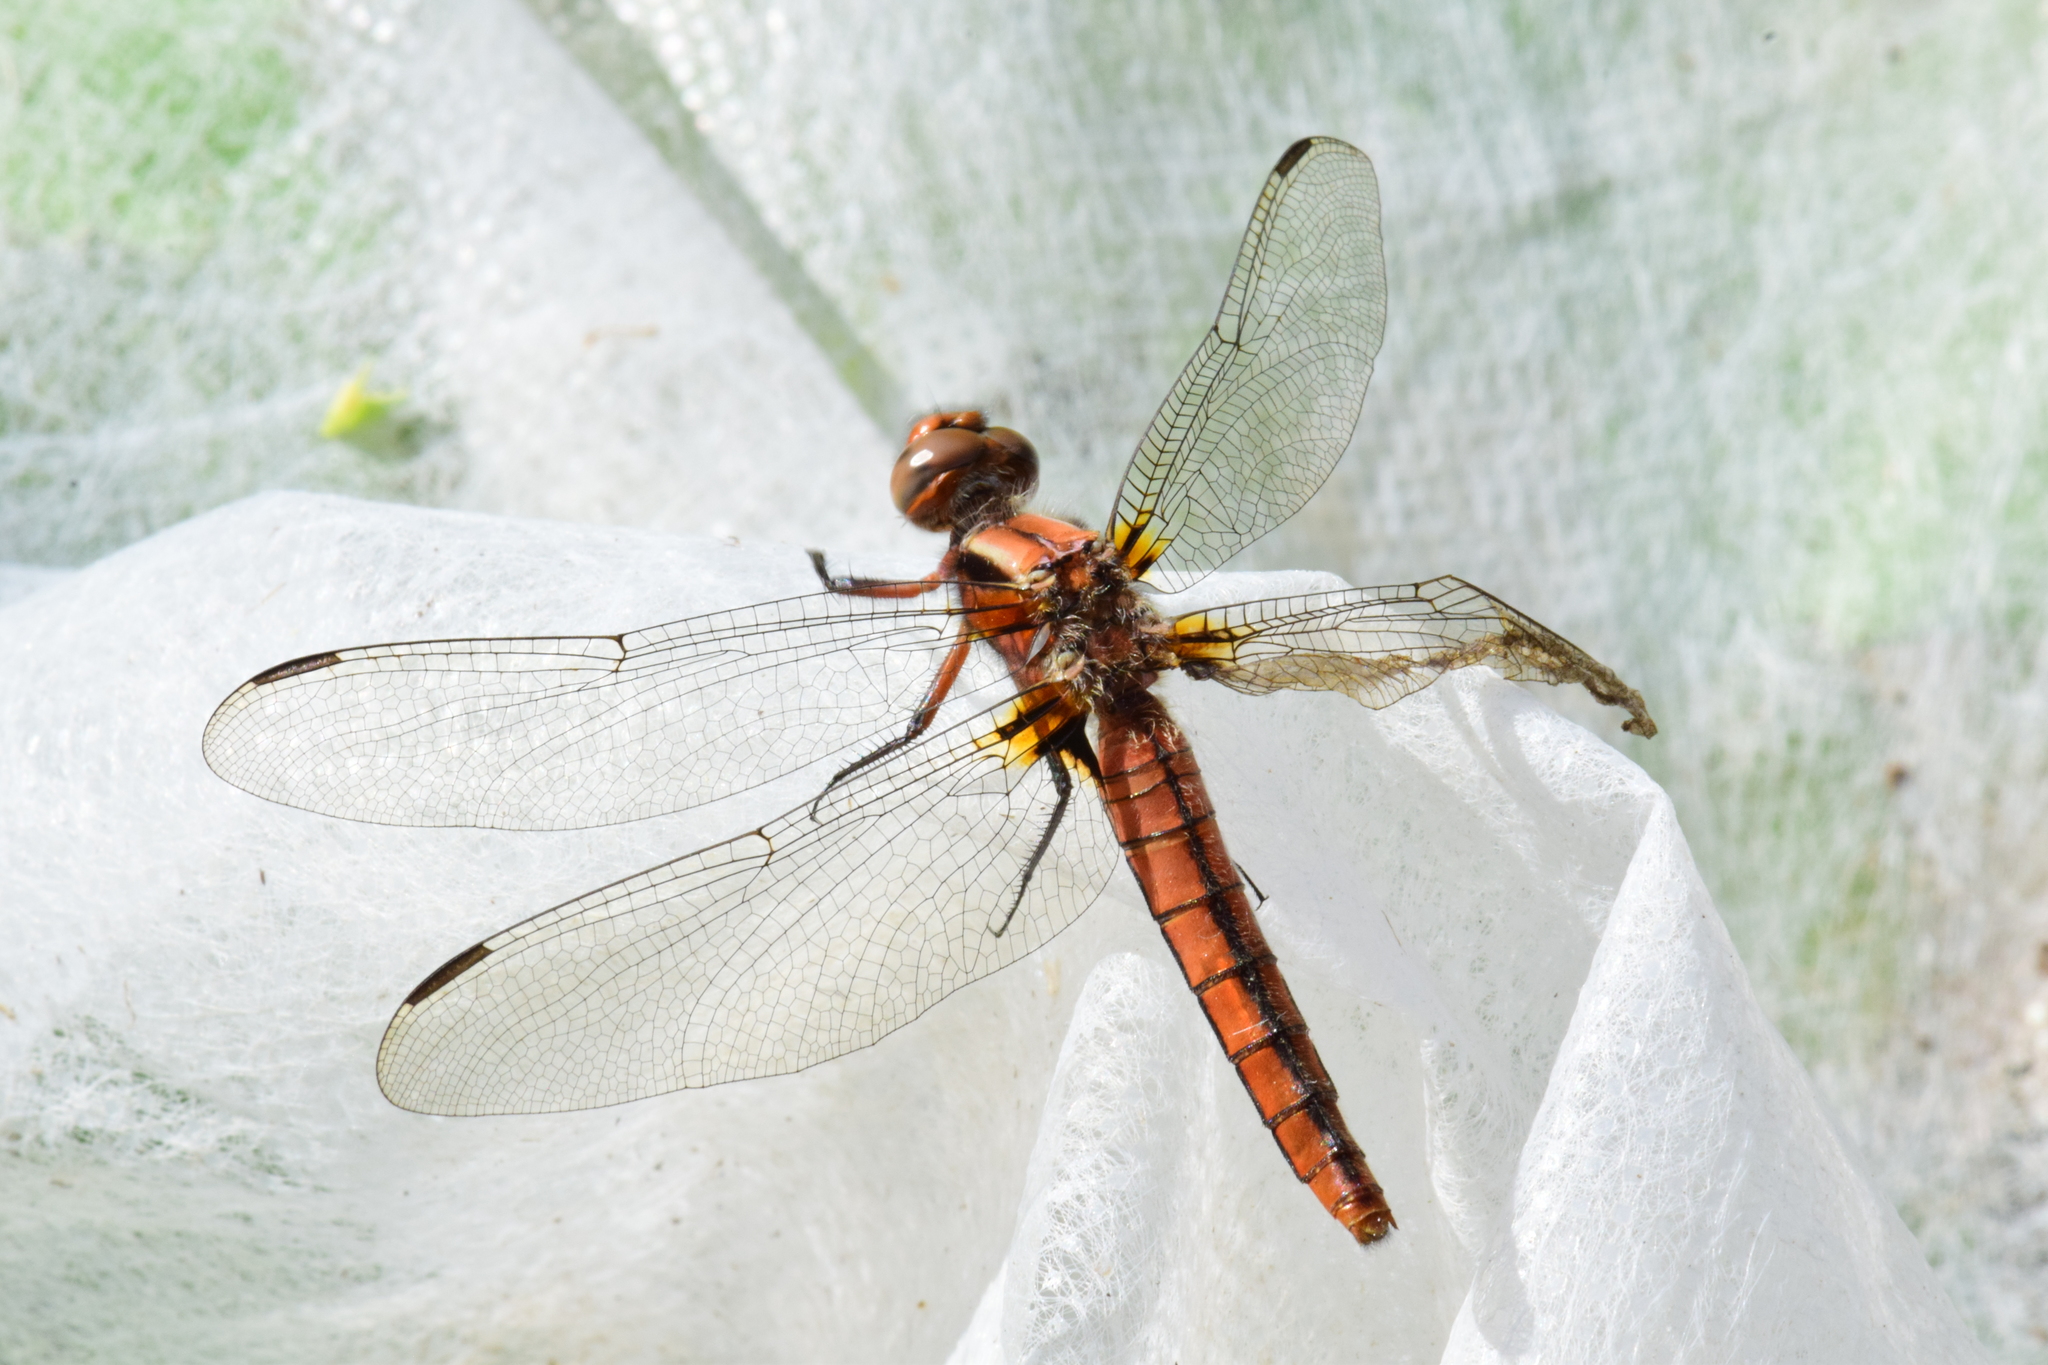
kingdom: Animalia
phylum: Arthropoda
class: Insecta
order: Odonata
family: Libellulidae
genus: Ladona
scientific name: Ladona julia
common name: Chalk-fronted corporal
